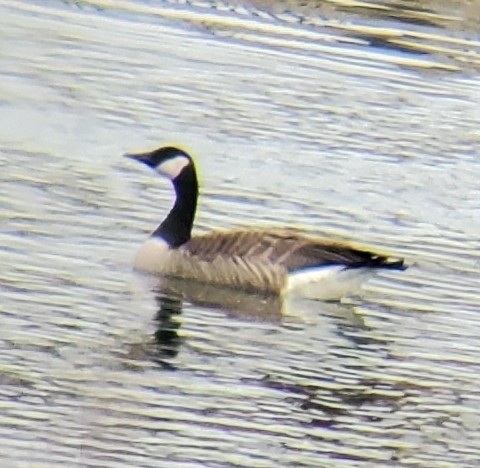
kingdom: Animalia
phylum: Chordata
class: Aves
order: Anseriformes
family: Anatidae
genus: Branta
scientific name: Branta canadensis
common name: Canada goose
